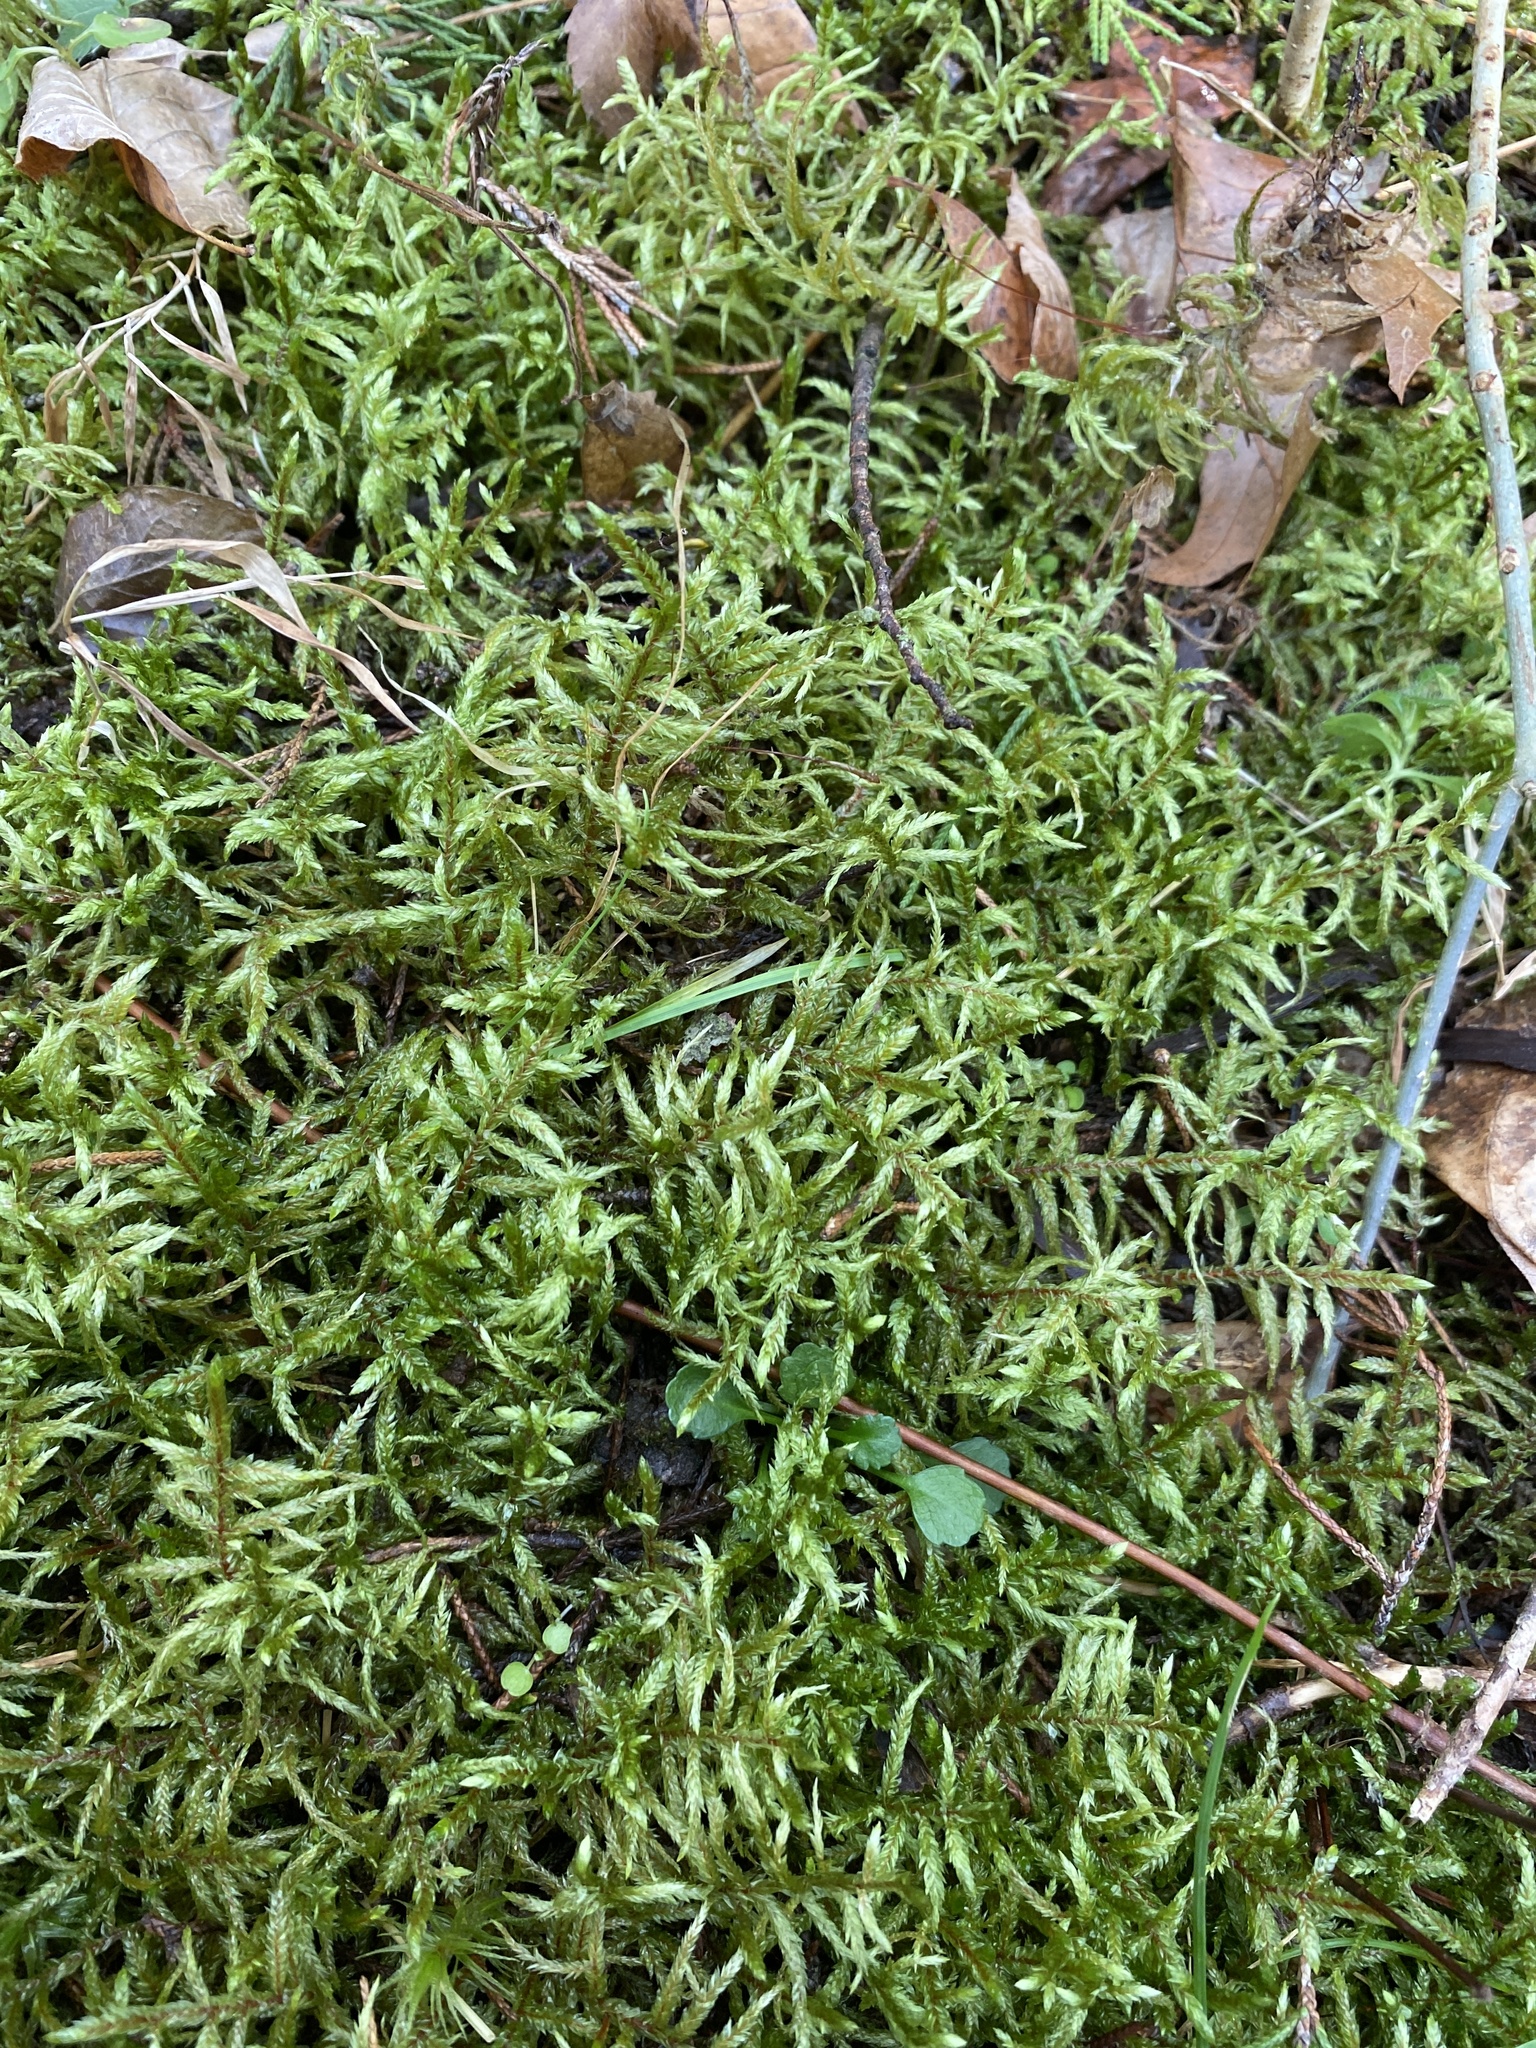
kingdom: Plantae
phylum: Bryophyta
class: Bryopsida
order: Hypnales
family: Hylocomiaceae
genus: Pleurozium
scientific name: Pleurozium schreberi
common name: Red-stemmed feather moss
